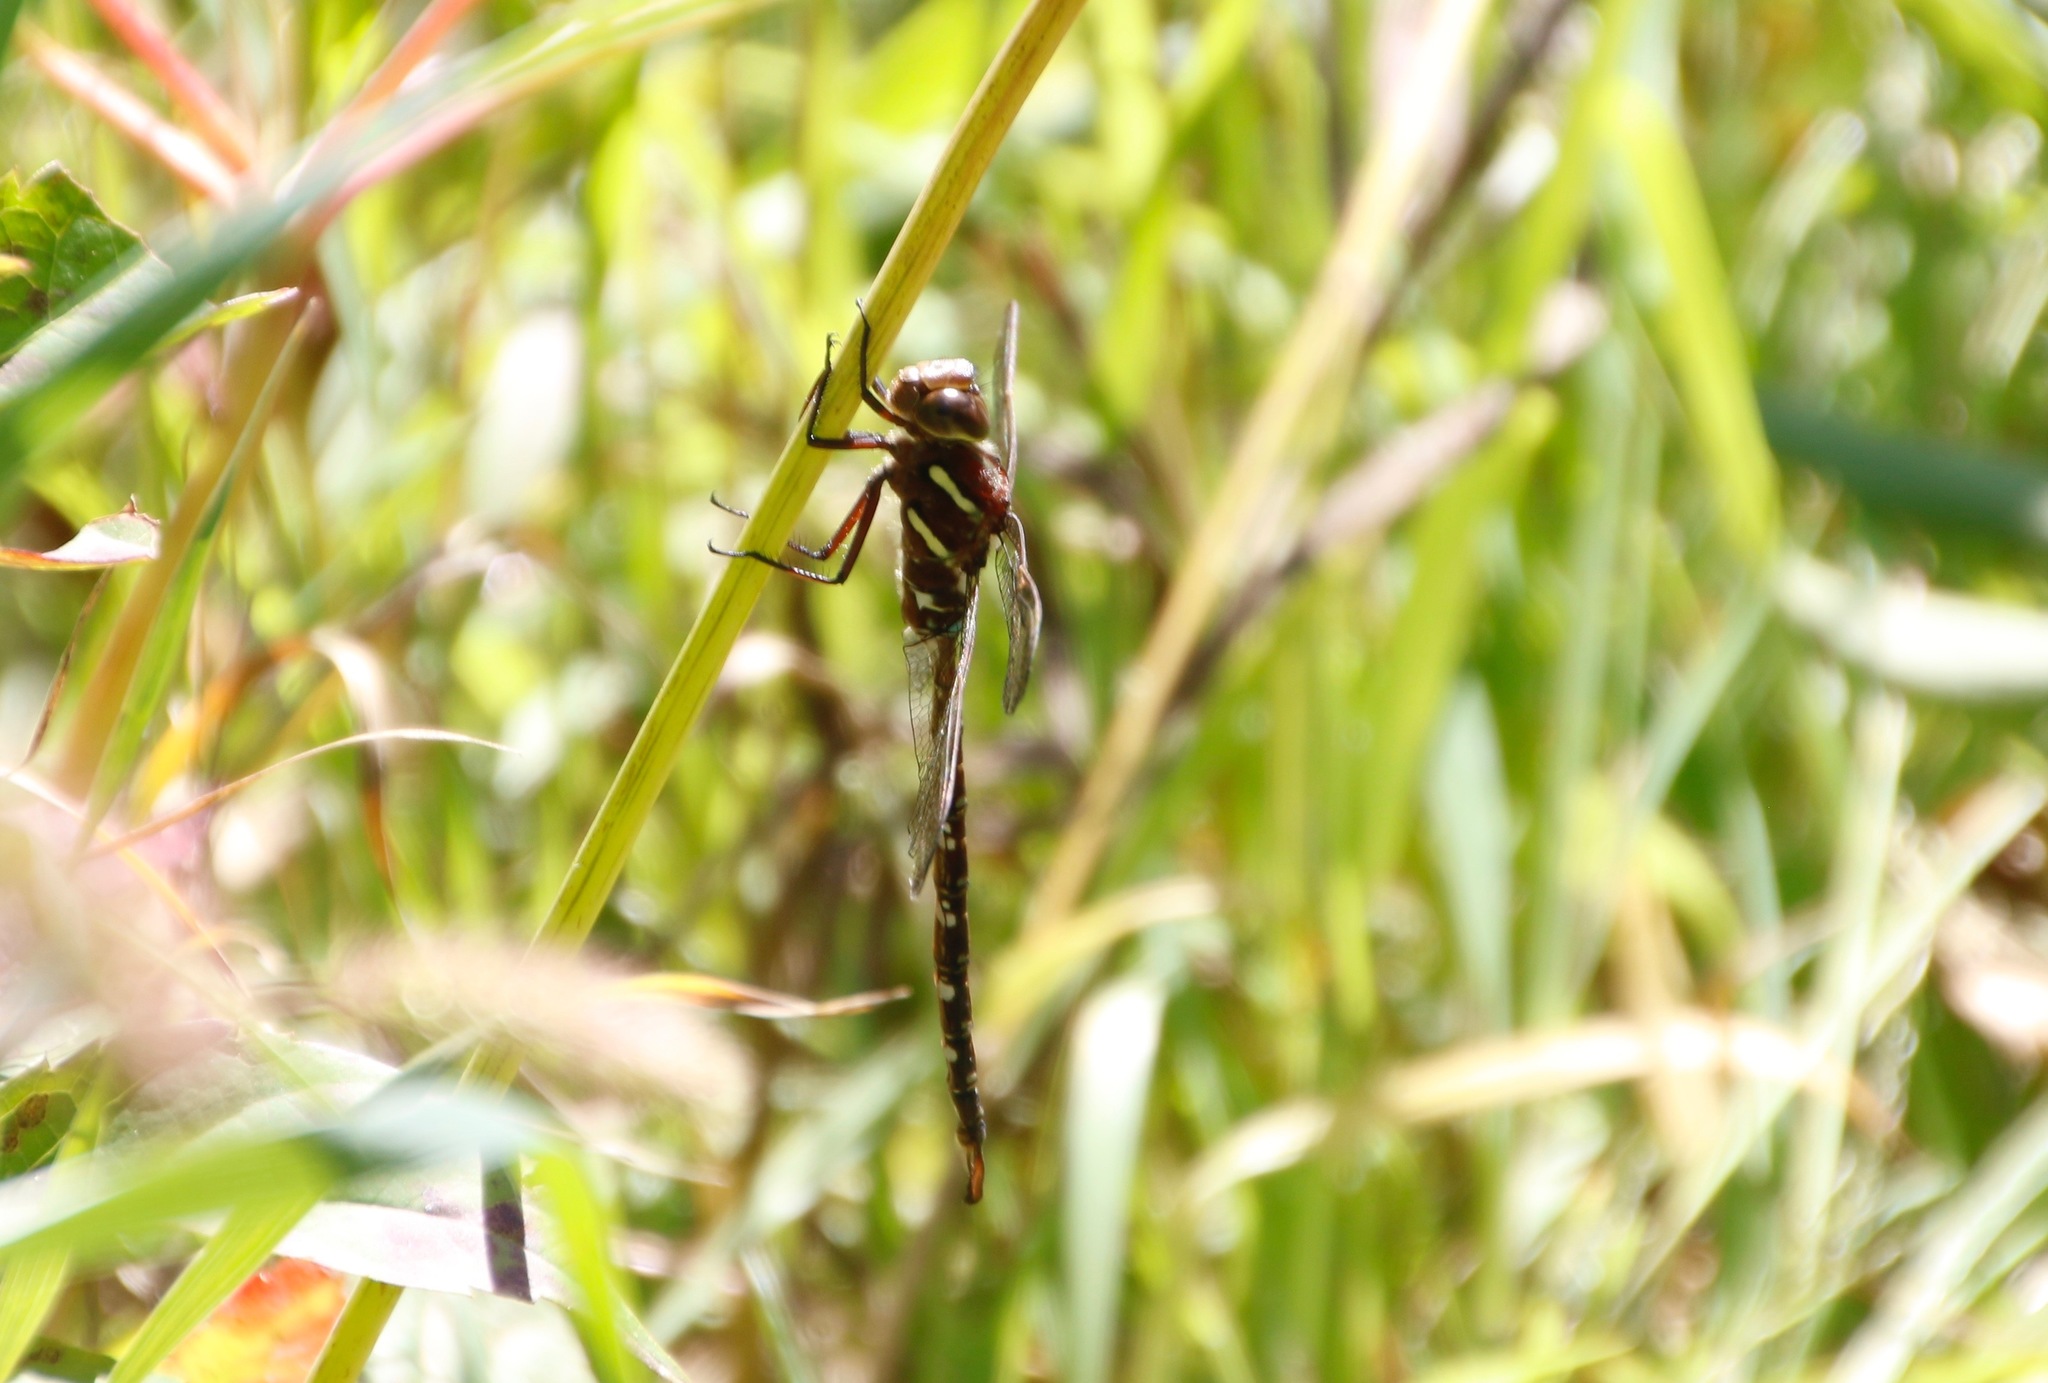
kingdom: Animalia
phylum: Arthropoda
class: Insecta
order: Odonata
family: Aeshnidae
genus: Aeshna
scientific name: Aeshna umbrosa
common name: Shadow darner
